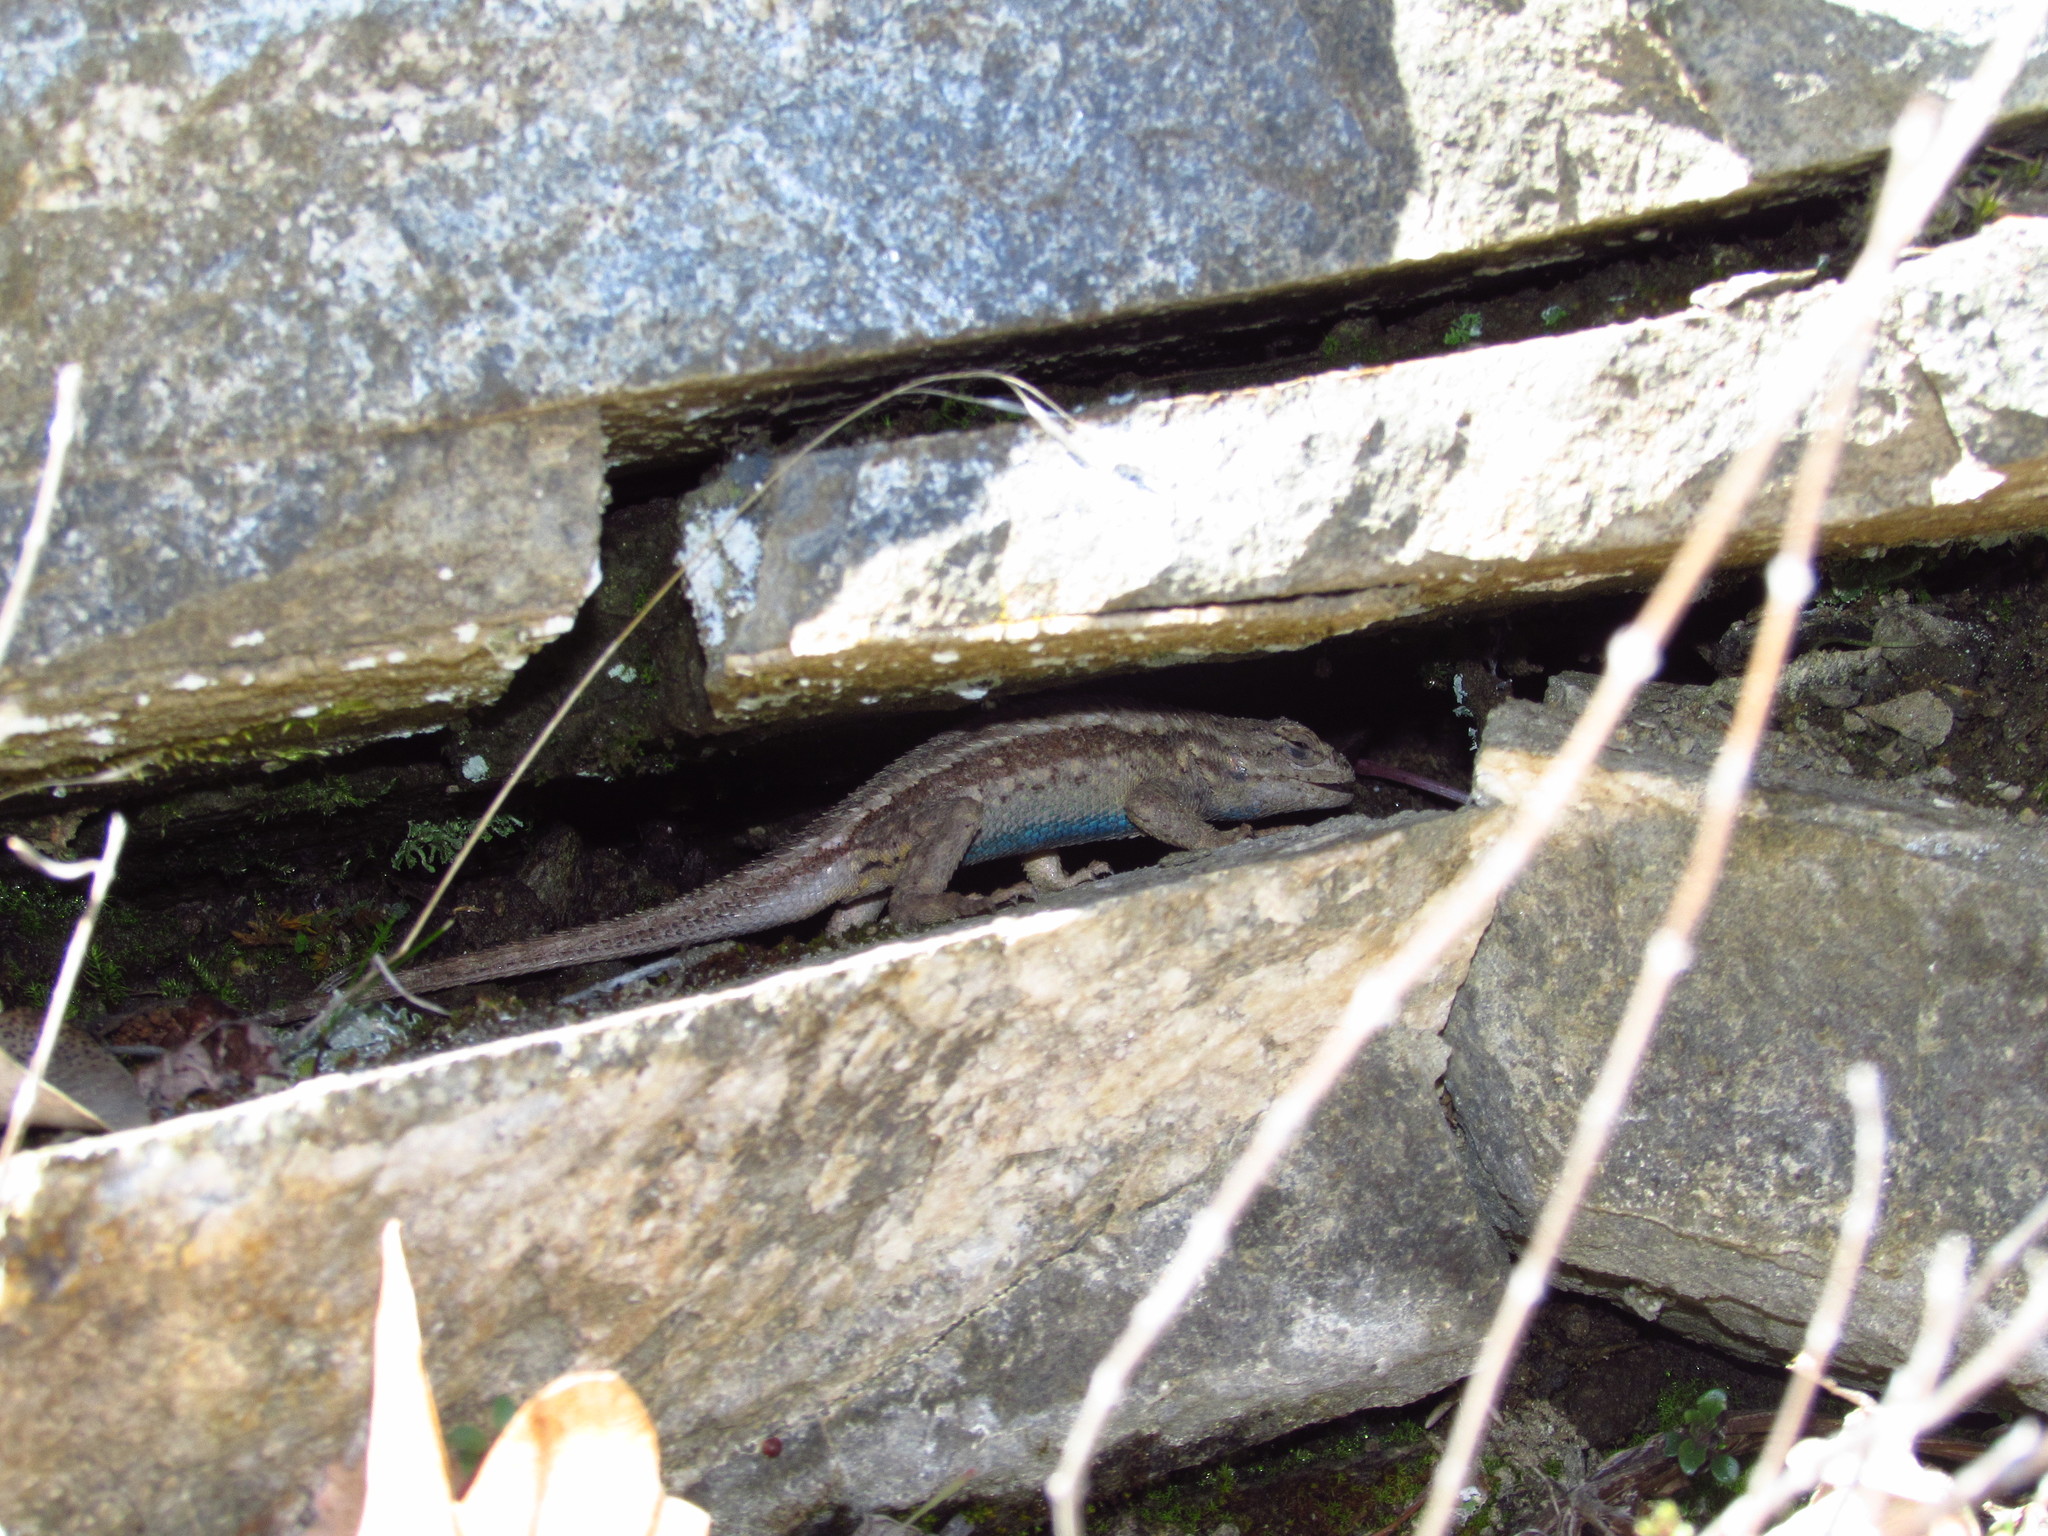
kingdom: Animalia
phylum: Chordata
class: Squamata
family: Phrynosomatidae
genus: Sceloporus
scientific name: Sceloporus occidentalis
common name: Western fence lizard
